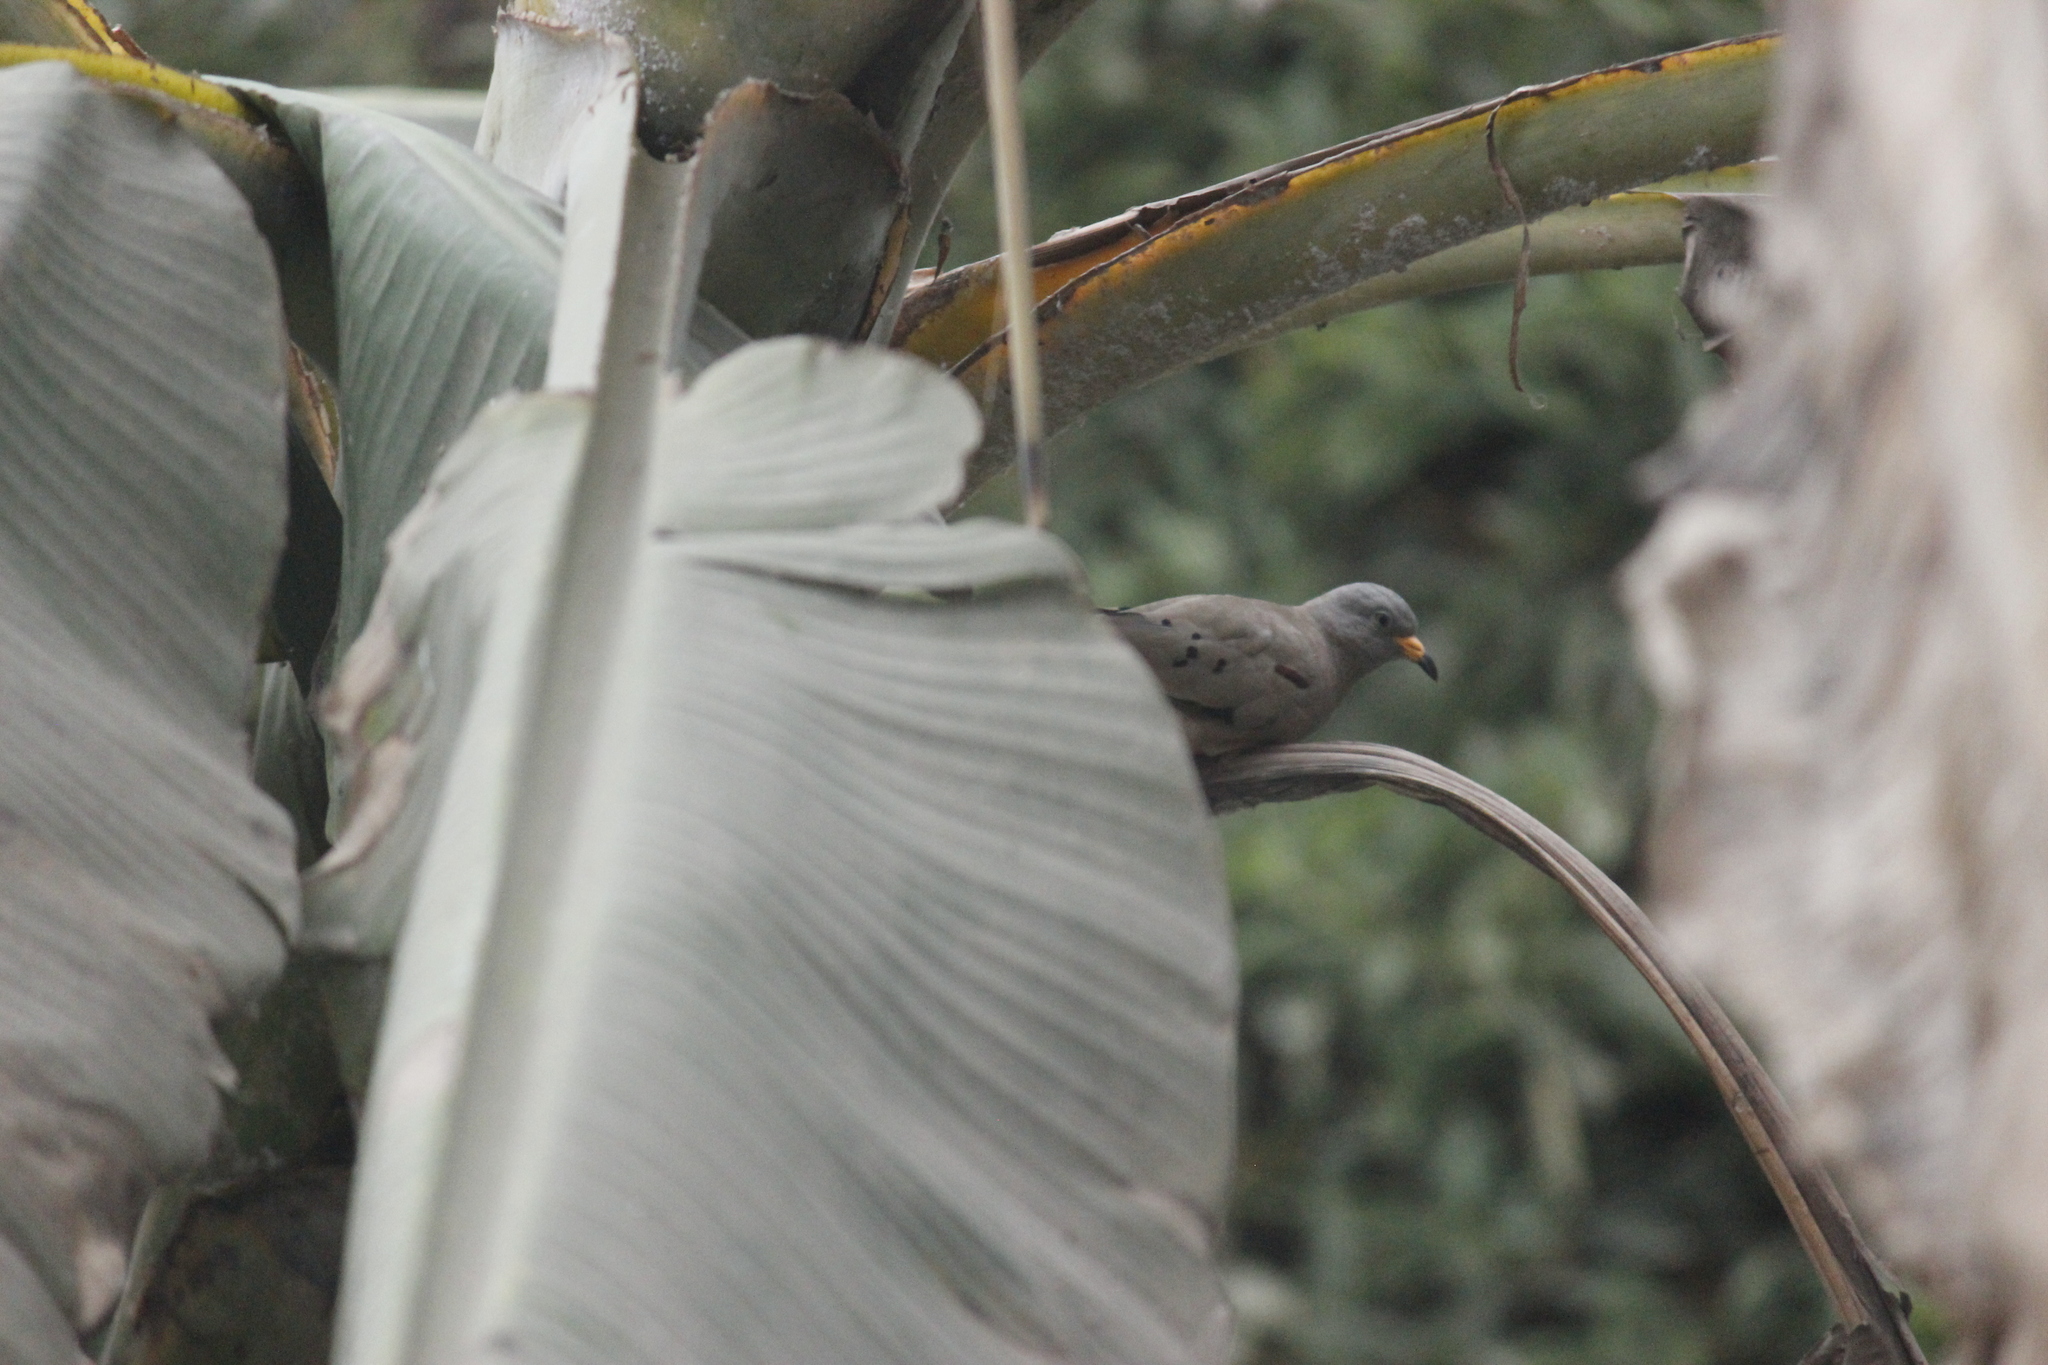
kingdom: Animalia
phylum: Chordata
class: Aves
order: Columbiformes
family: Columbidae
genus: Columbina
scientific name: Columbina cruziana
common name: Croaking ground dove
